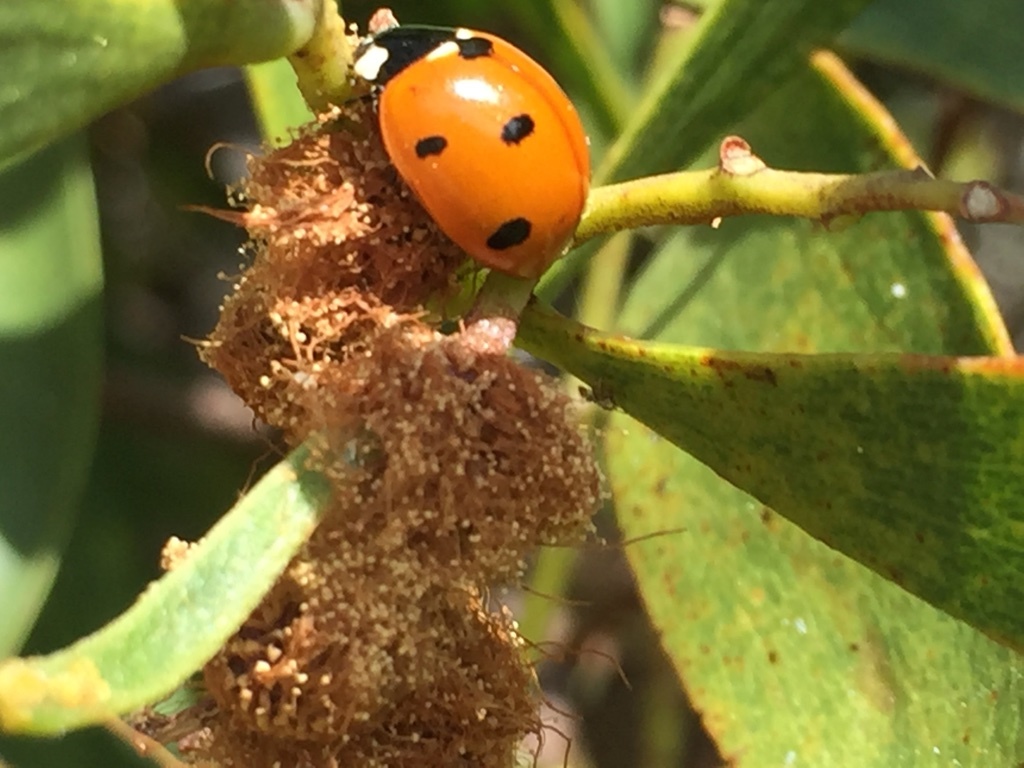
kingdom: Animalia
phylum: Arthropoda
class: Insecta
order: Coleoptera
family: Coccinellidae
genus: Coccinella
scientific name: Coccinella septempunctata
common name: Sevenspotted lady beetle
